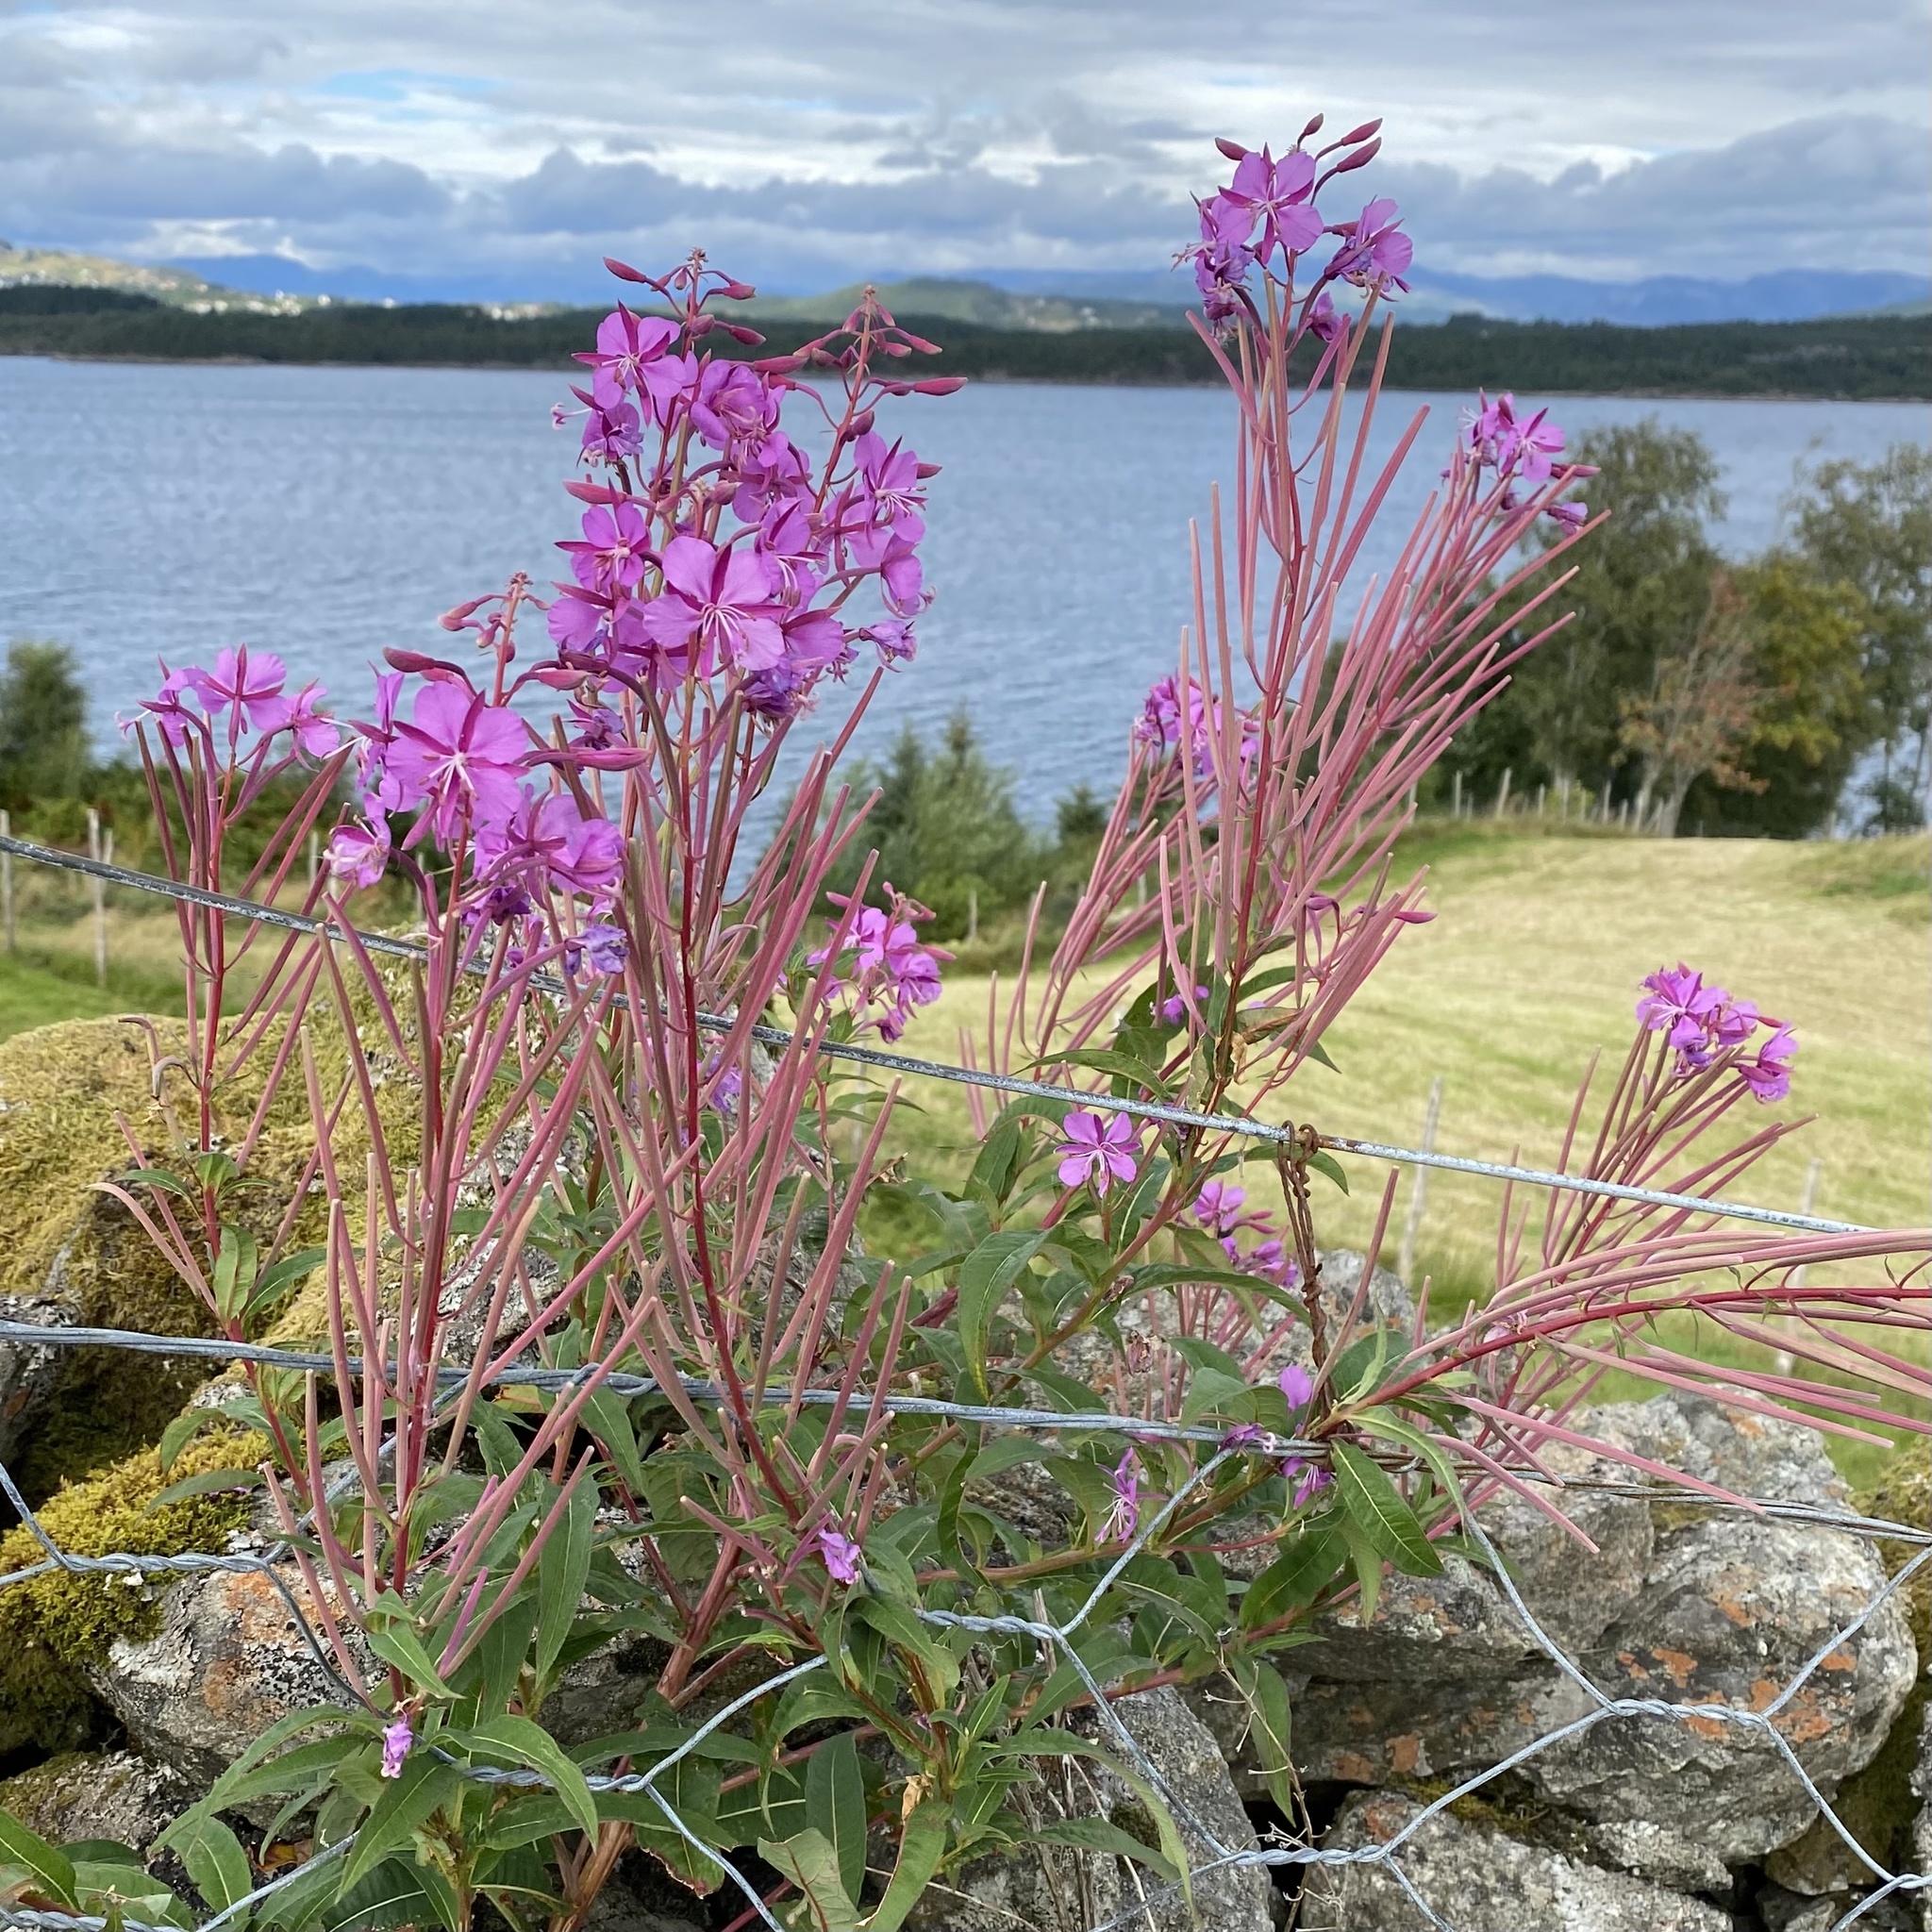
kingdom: Plantae
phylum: Tracheophyta
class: Magnoliopsida
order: Myrtales
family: Onagraceae
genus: Chamaenerion
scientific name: Chamaenerion angustifolium
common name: Fireweed
